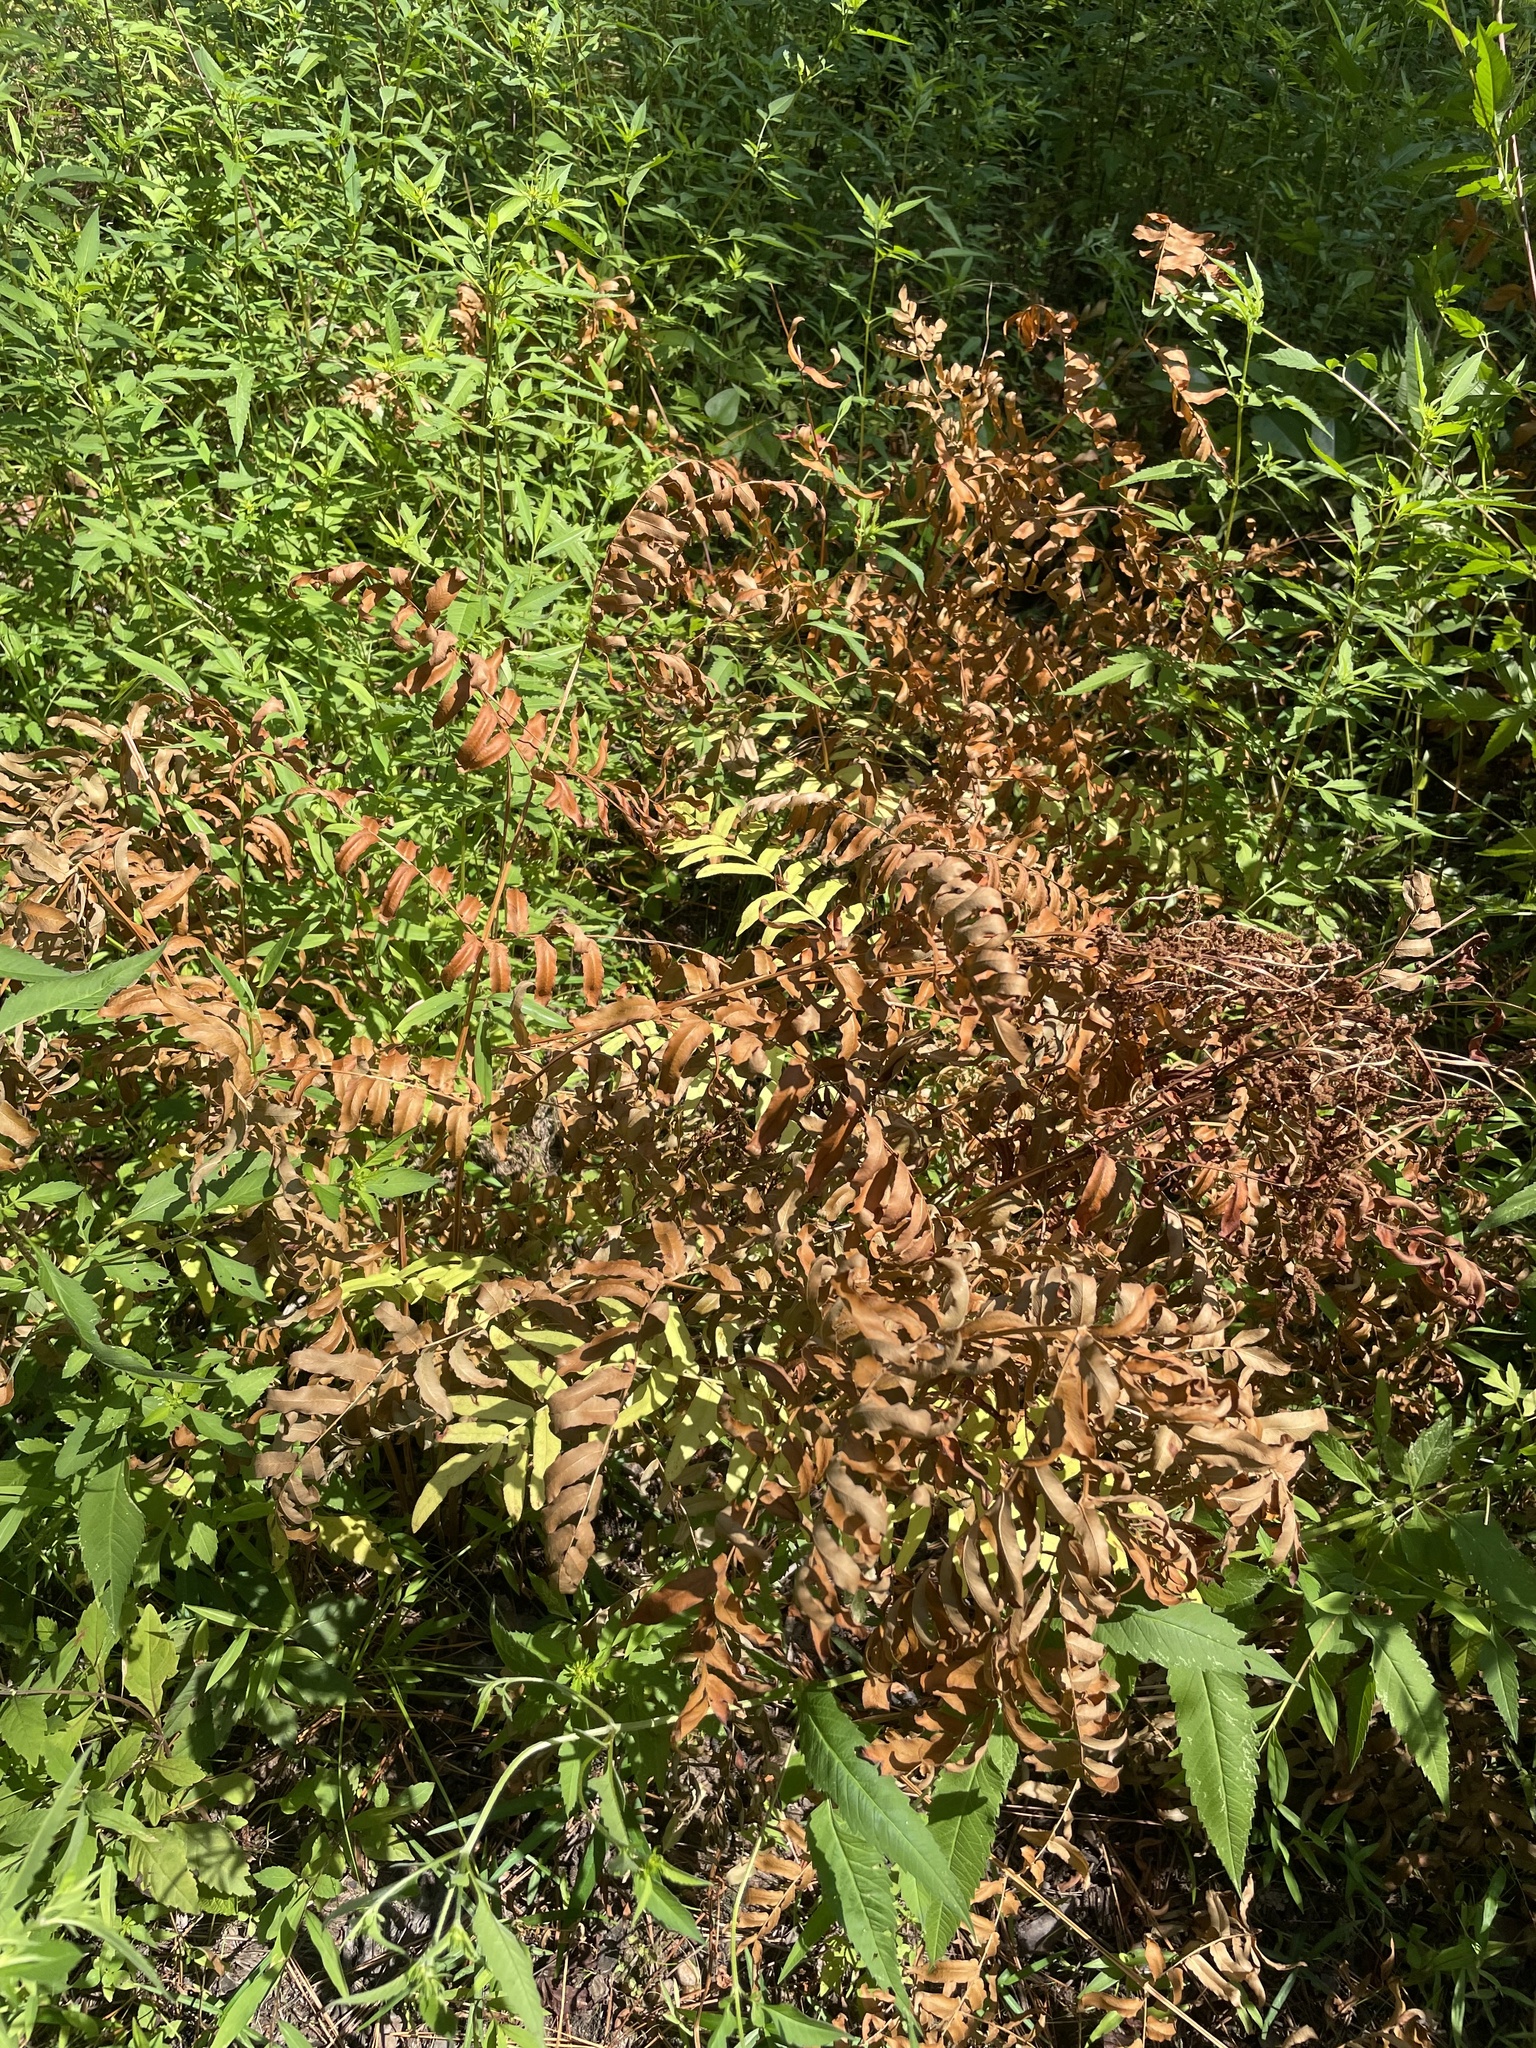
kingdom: Plantae
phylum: Tracheophyta
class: Polypodiopsida
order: Osmundales
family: Osmundaceae
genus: Osmunda
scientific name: Osmunda spectabilis
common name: American royal fern
